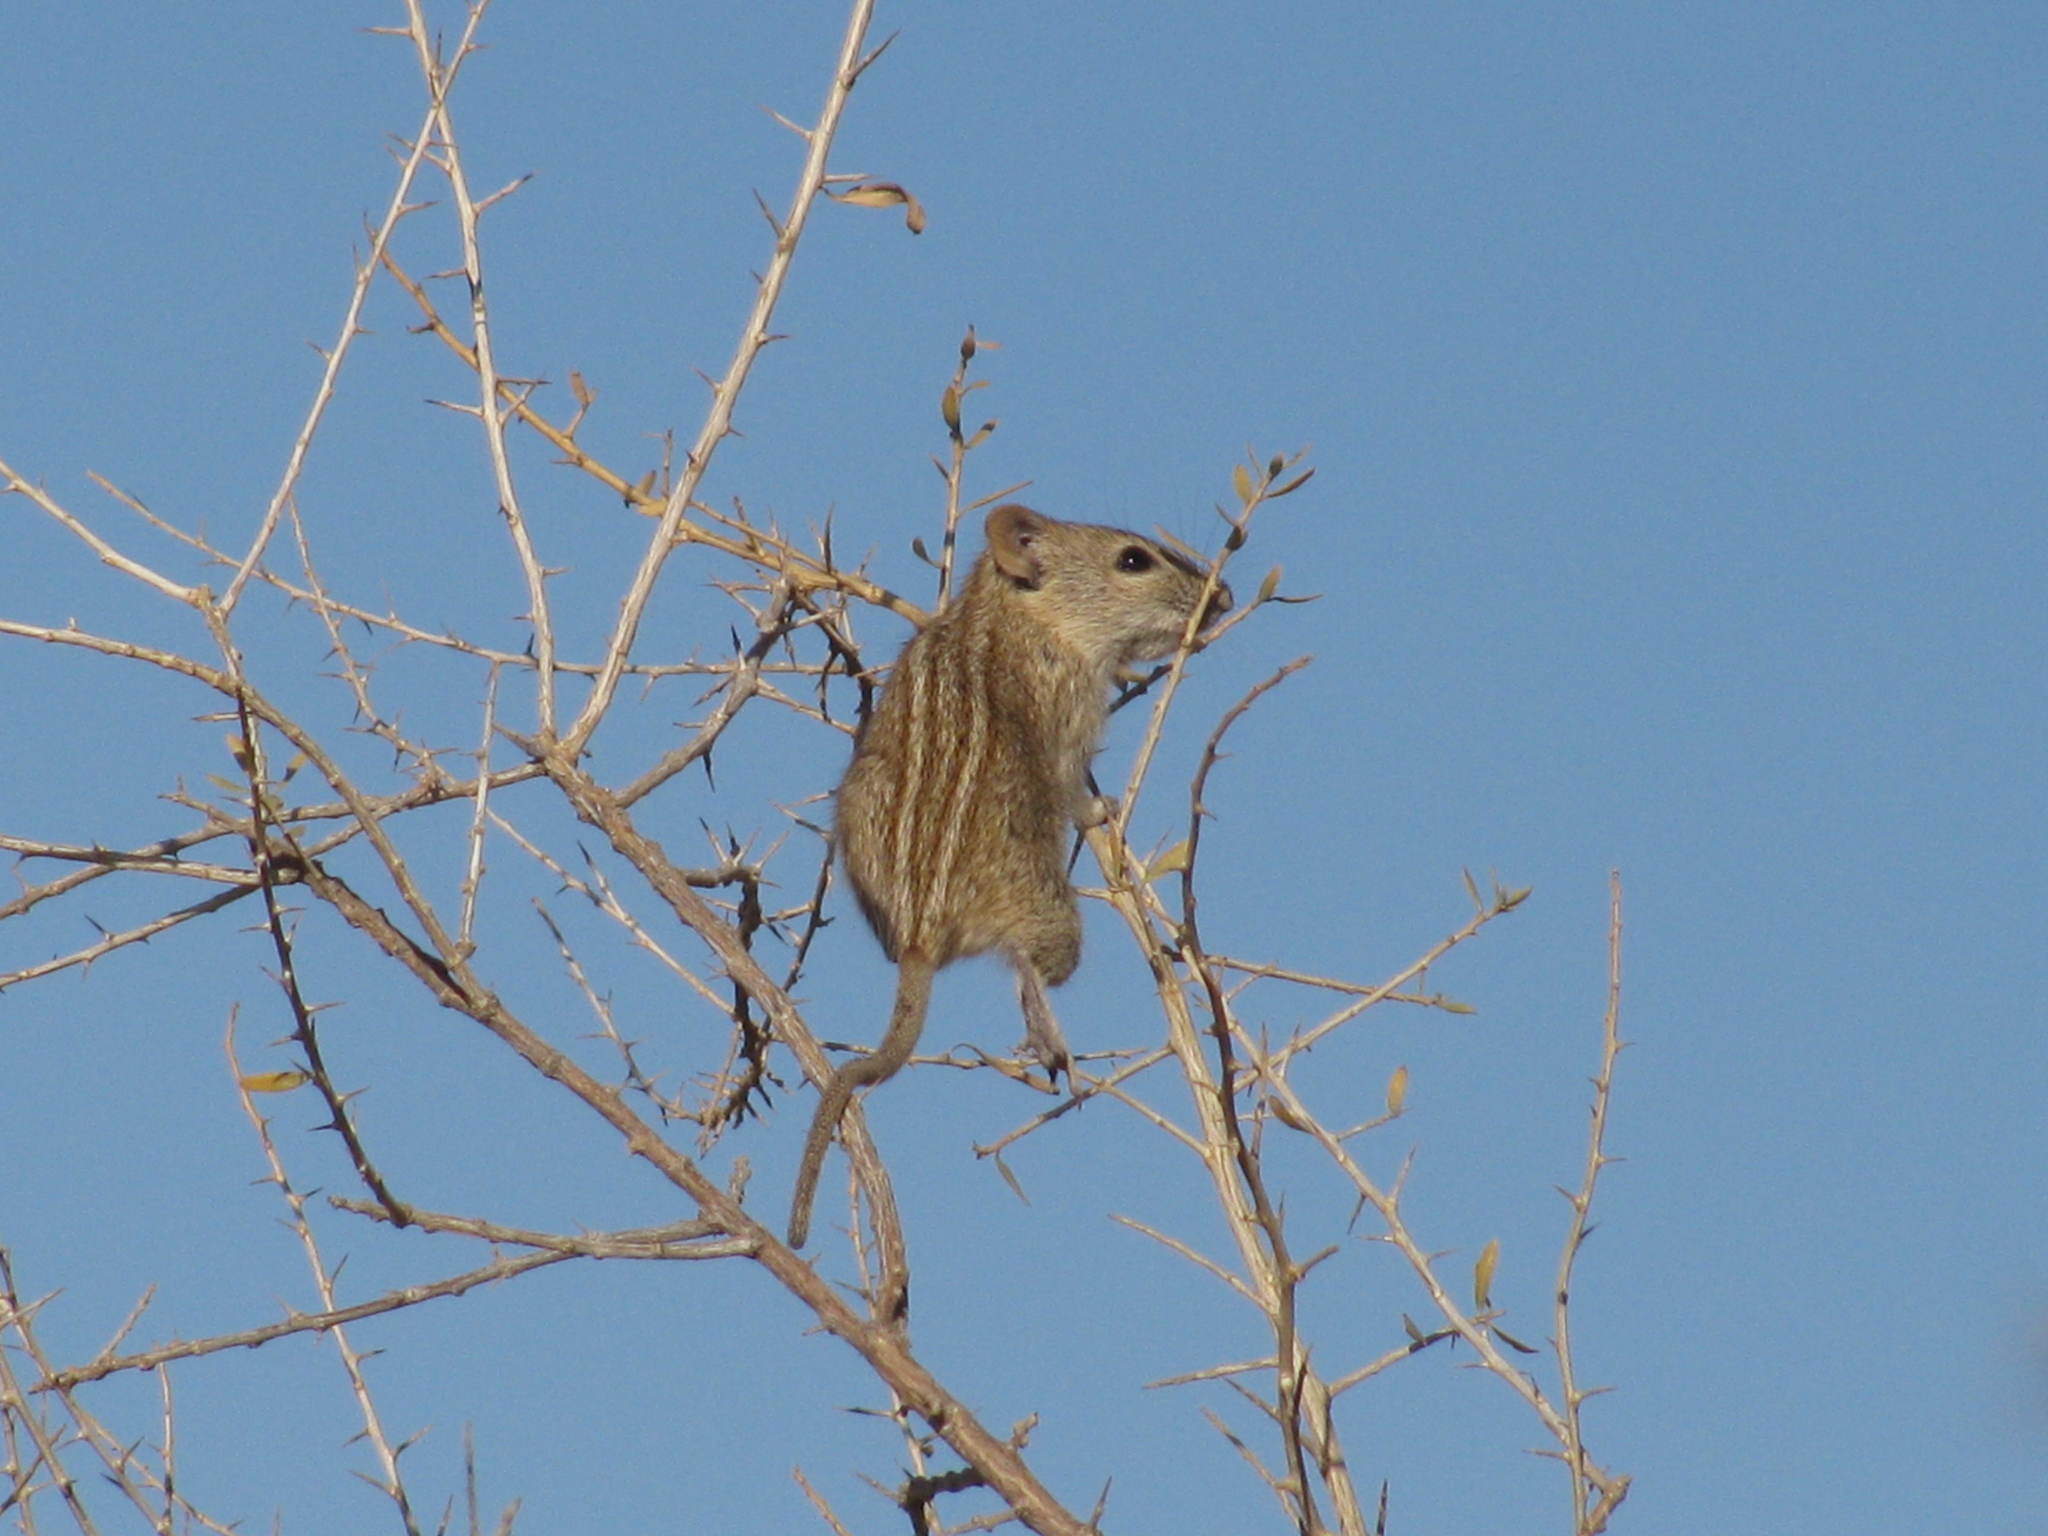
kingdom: Animalia
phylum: Chordata
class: Mammalia
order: Rodentia
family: Muridae
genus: Rhabdomys
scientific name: Rhabdomys pumilio
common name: Xeric four-striped grass rat
